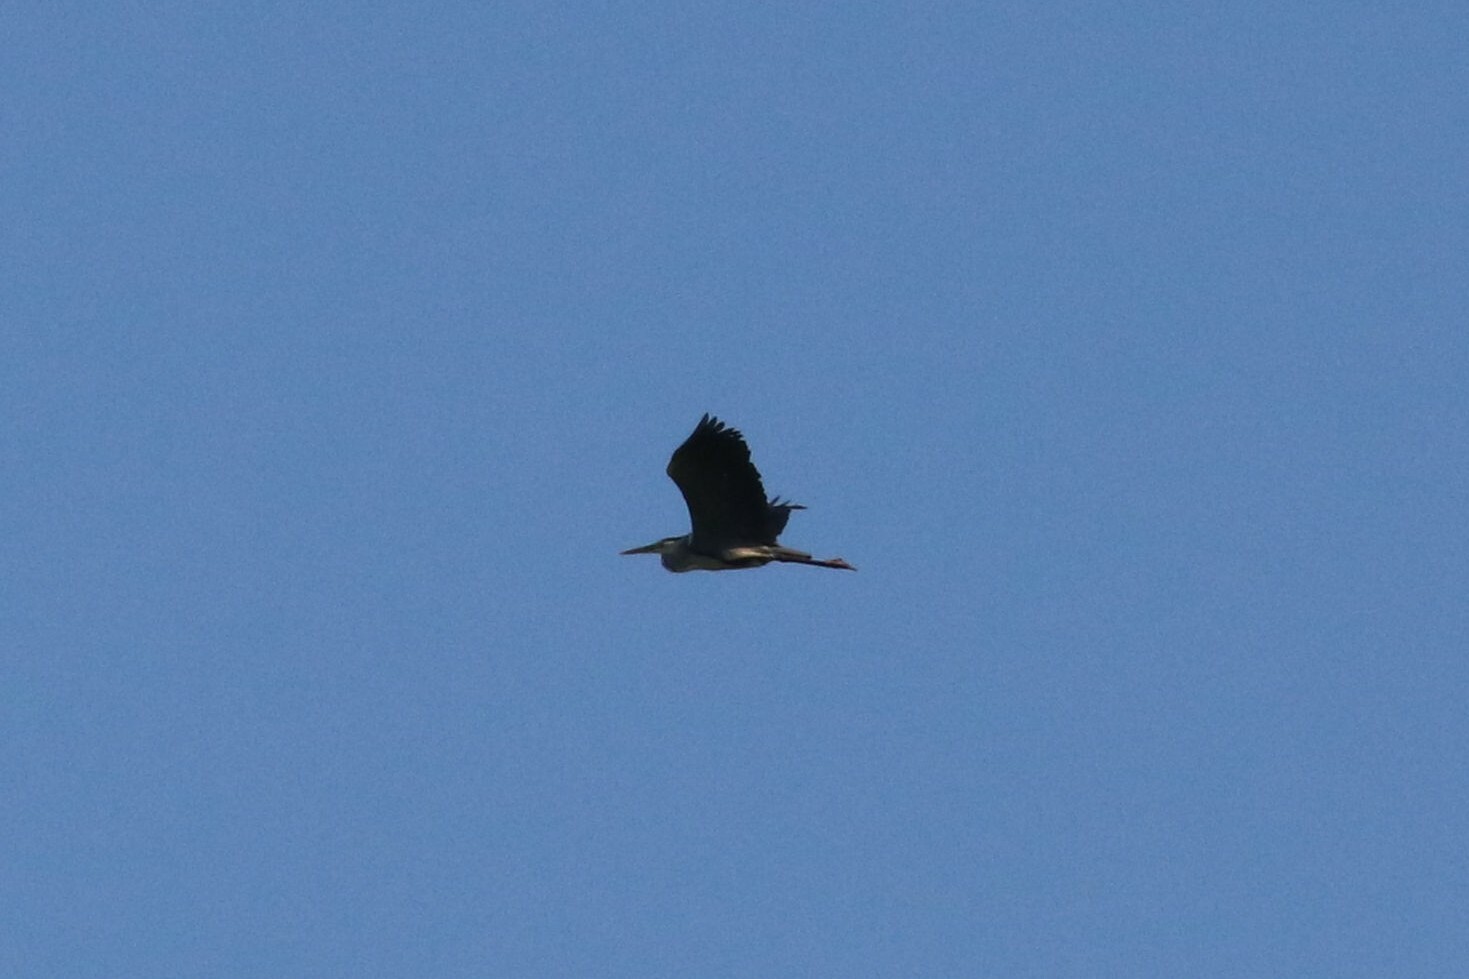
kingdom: Animalia
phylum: Chordata
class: Aves
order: Pelecaniformes
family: Ardeidae
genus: Ardea
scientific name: Ardea cinerea
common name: Grey heron
